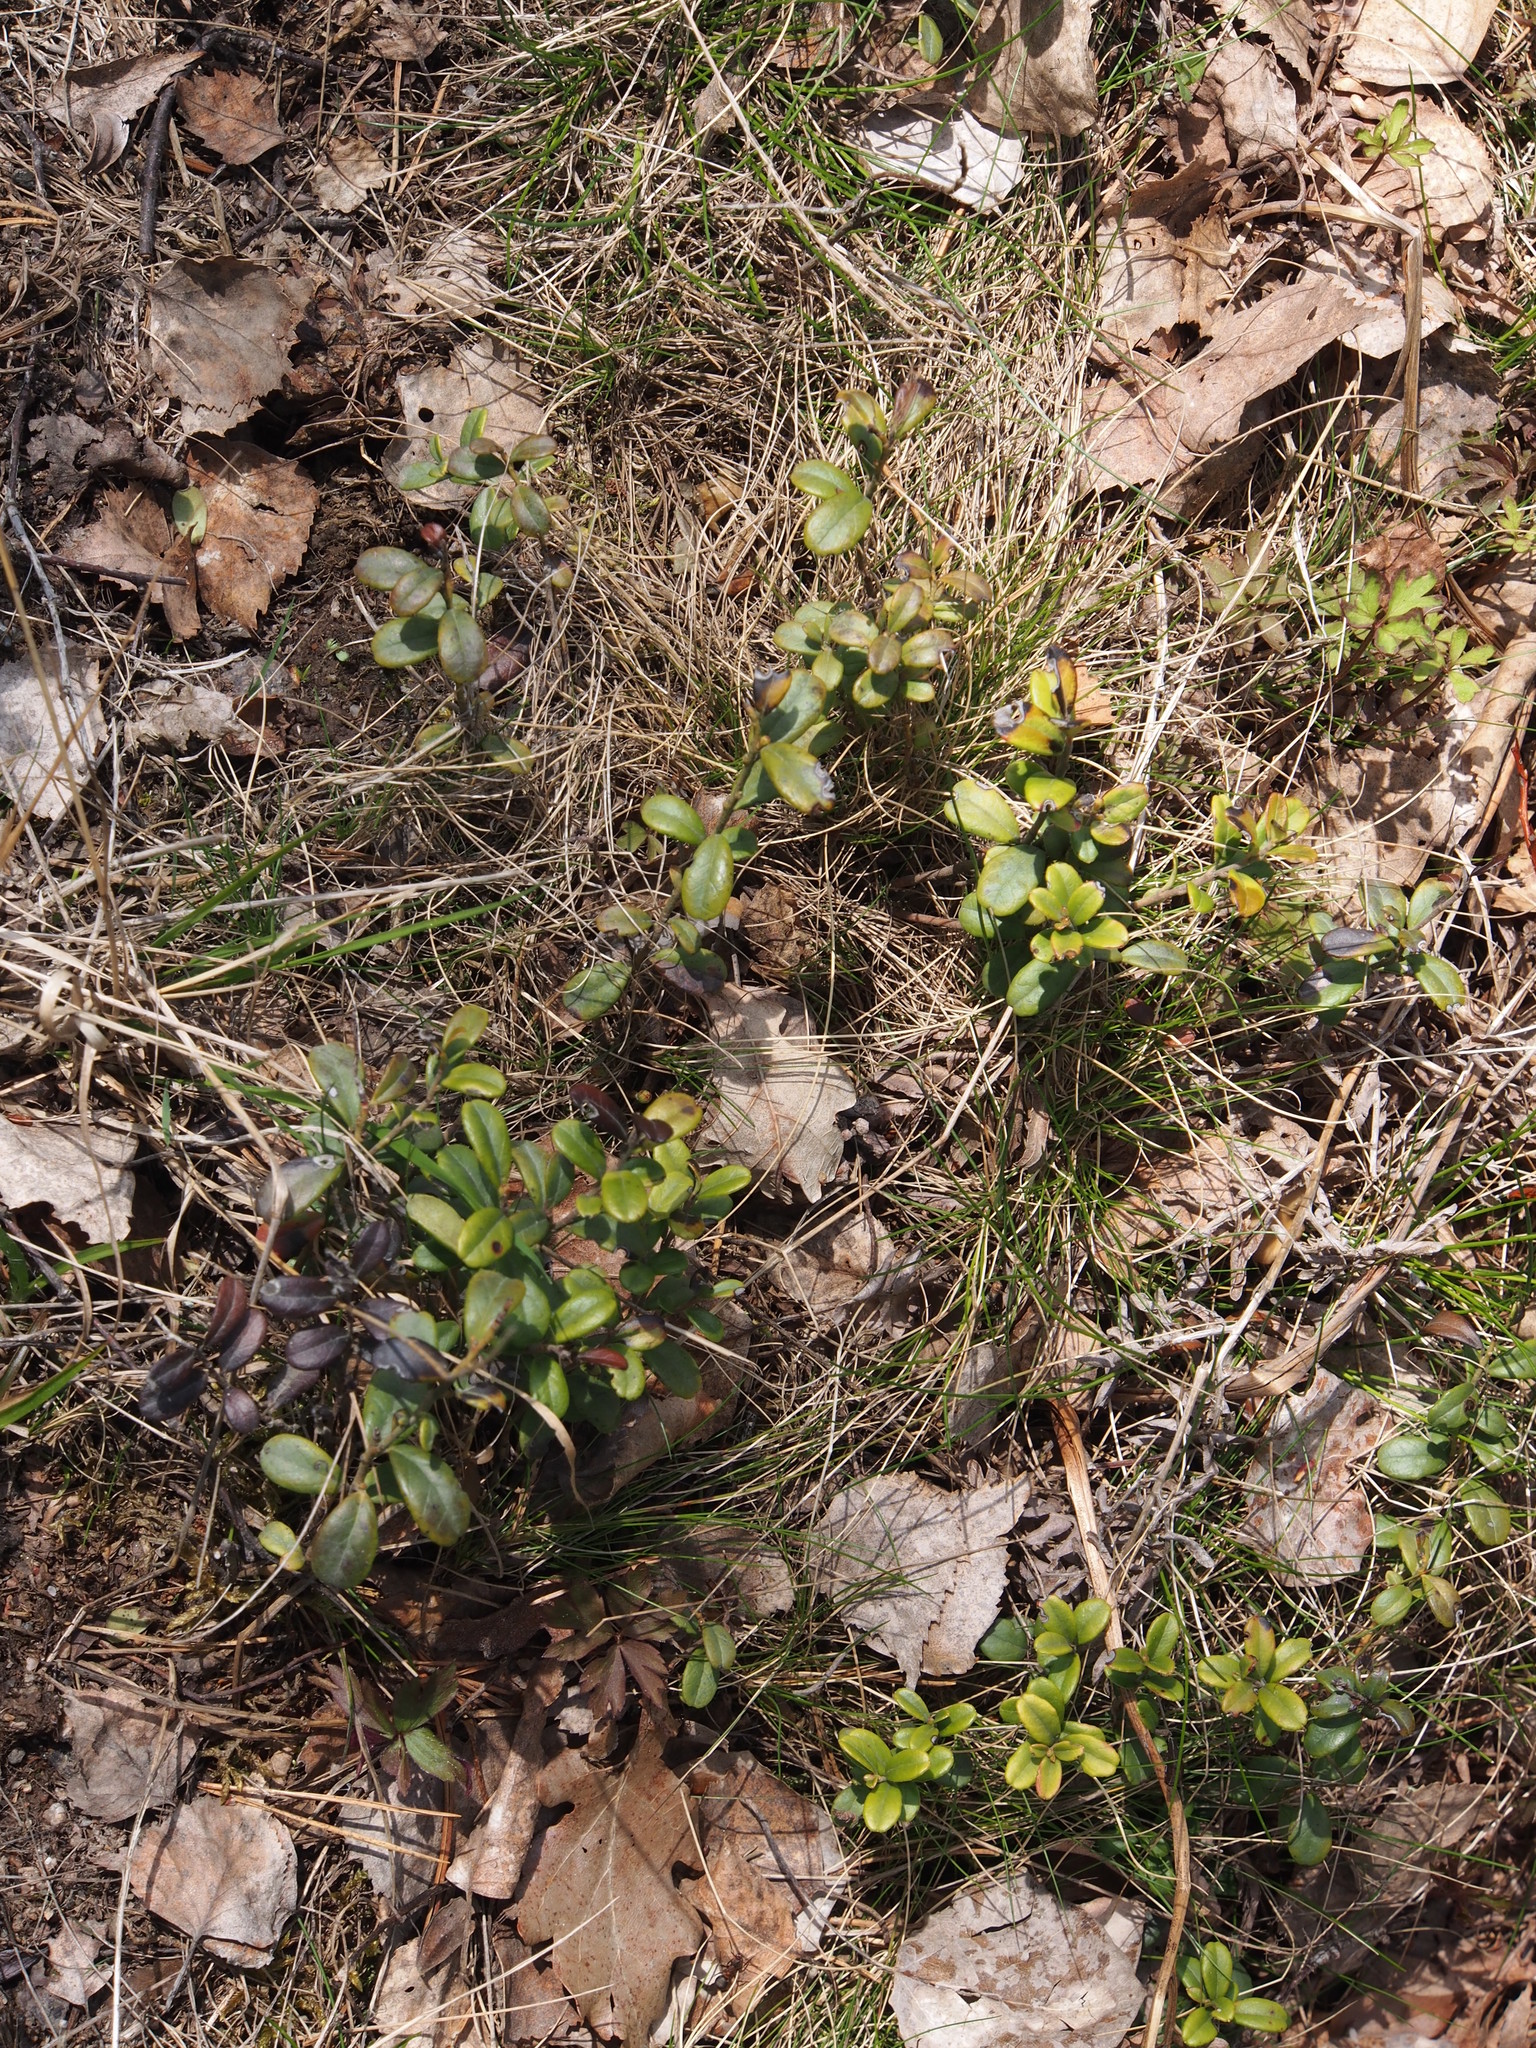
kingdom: Plantae
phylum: Tracheophyta
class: Magnoliopsida
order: Ericales
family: Ericaceae
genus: Vaccinium
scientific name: Vaccinium vitis-idaea
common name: Cowberry
